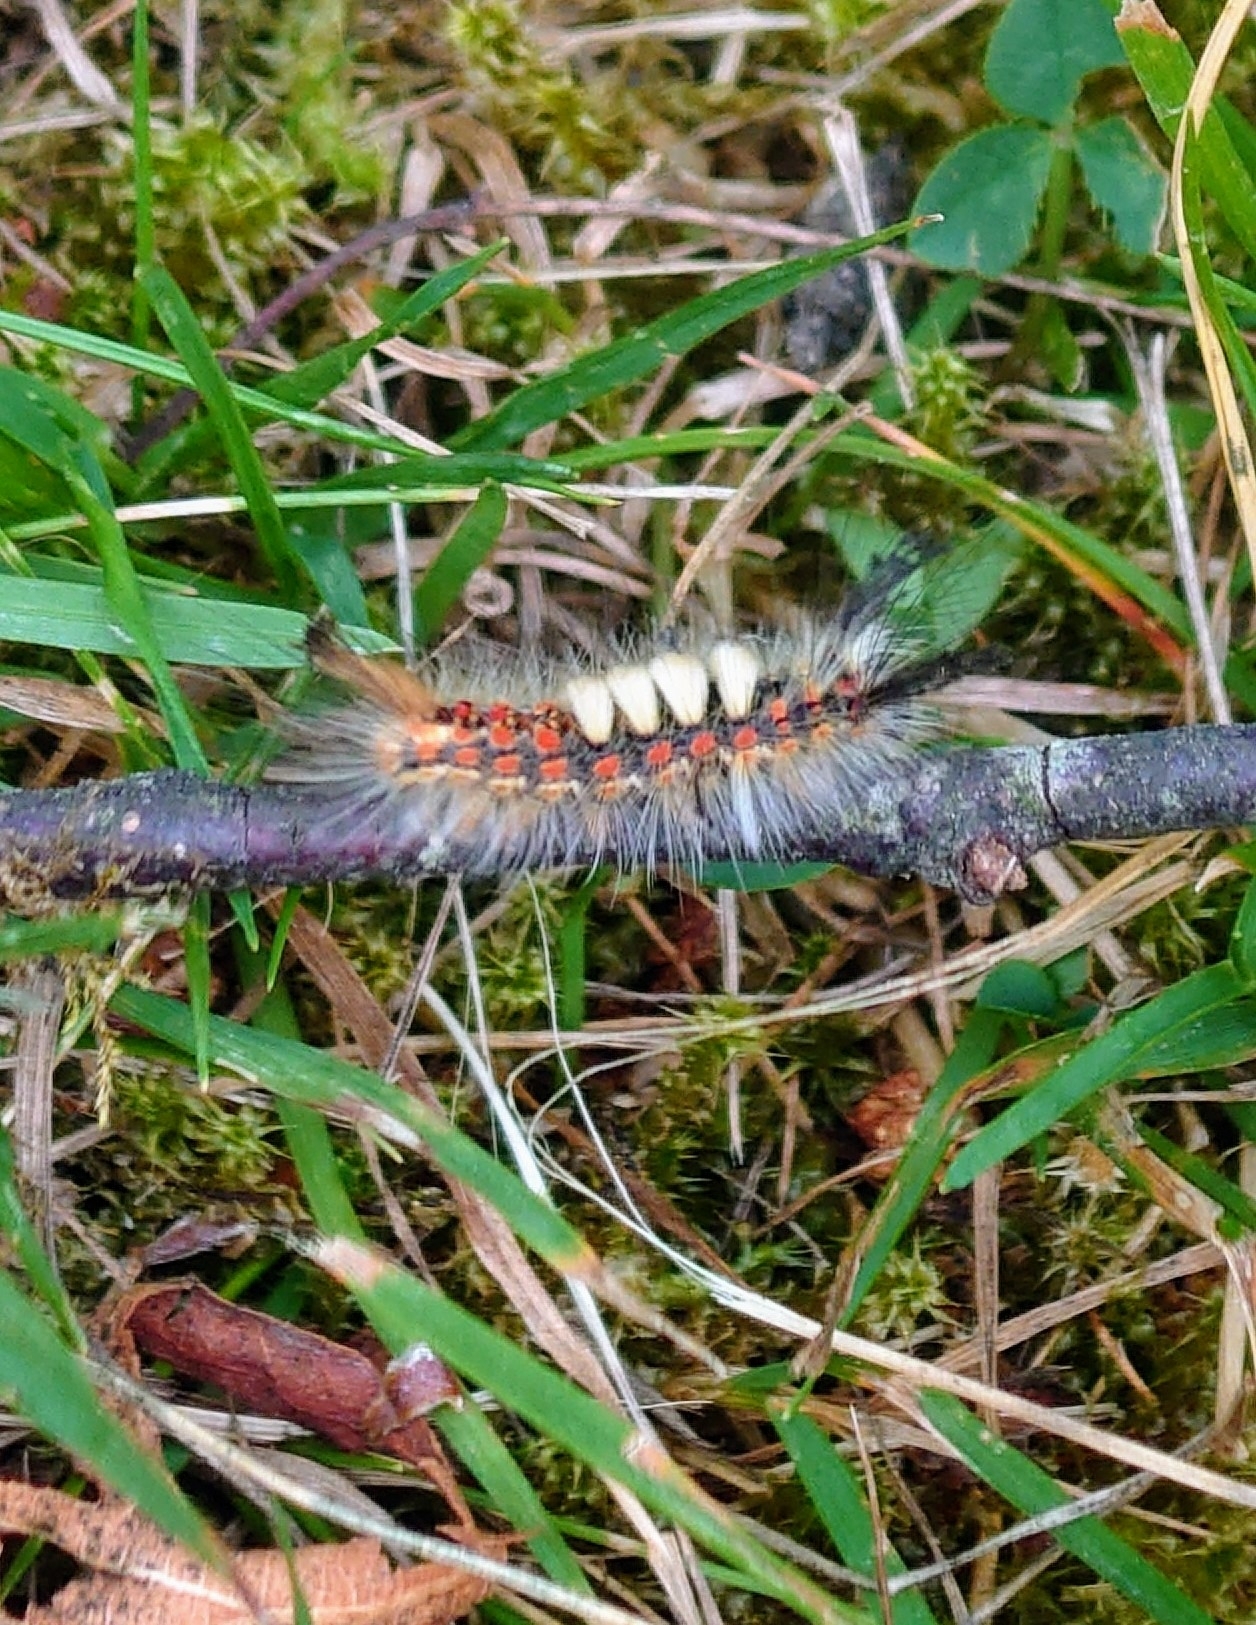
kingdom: Animalia
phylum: Arthropoda
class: Insecta
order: Lepidoptera
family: Erebidae
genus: Orgyia
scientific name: Orgyia antiqua
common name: Vapourer
